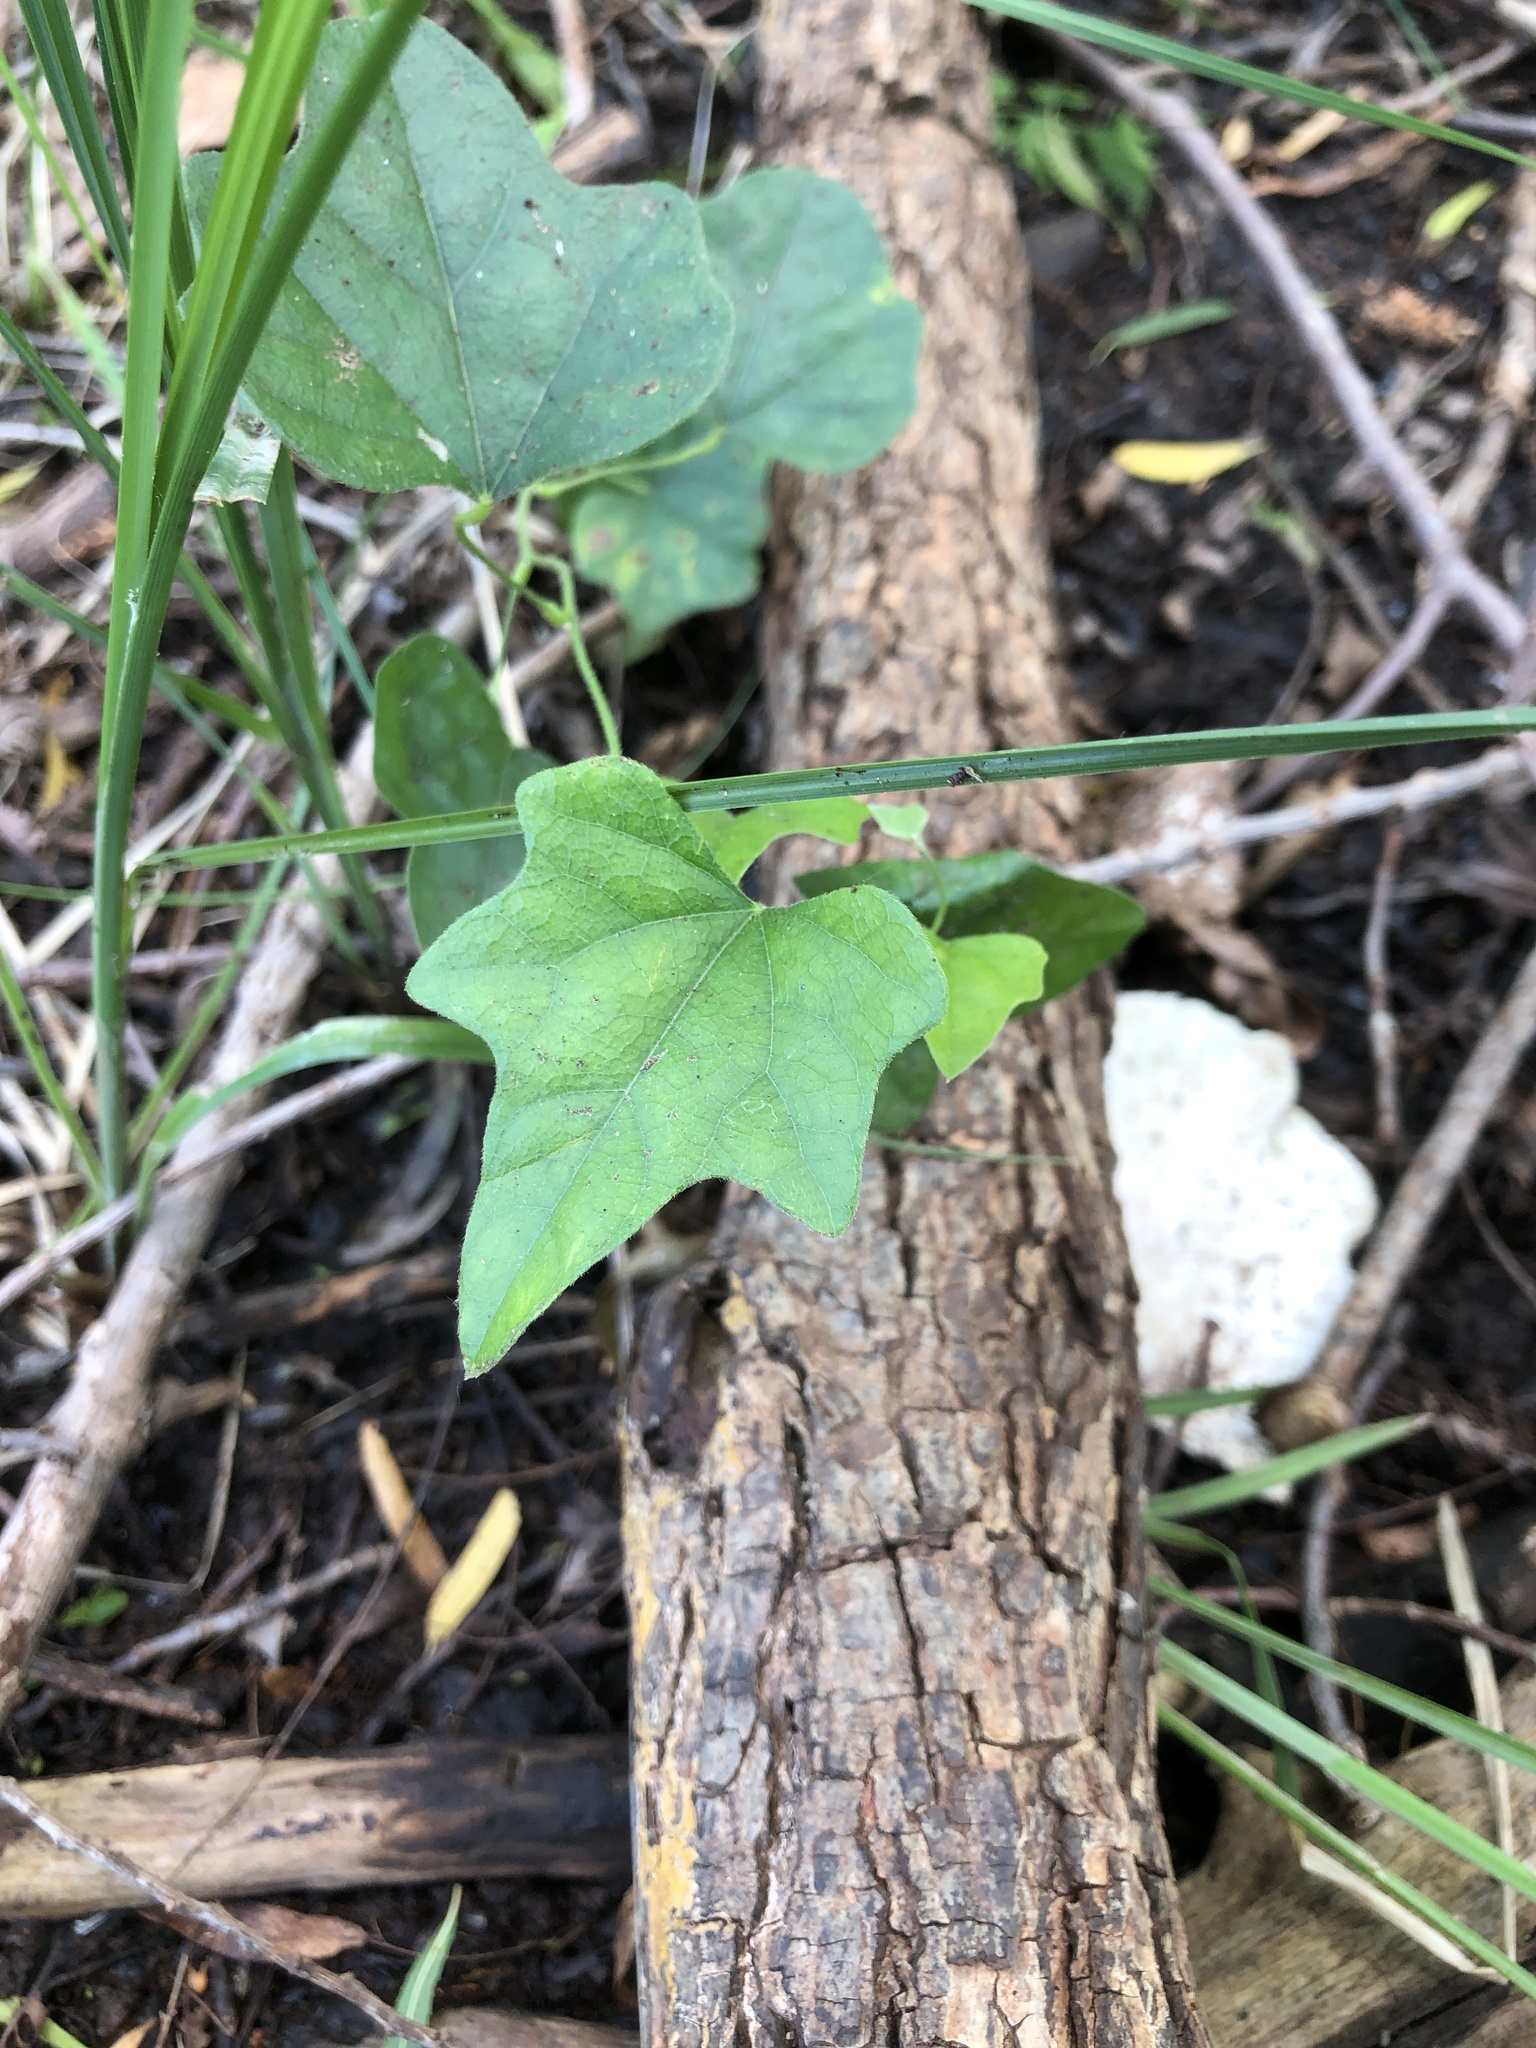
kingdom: Plantae
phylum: Tracheophyta
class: Magnoliopsida
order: Ranunculales
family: Menispermaceae
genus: Cocculus
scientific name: Cocculus carolinus
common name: Carolina moonseed
